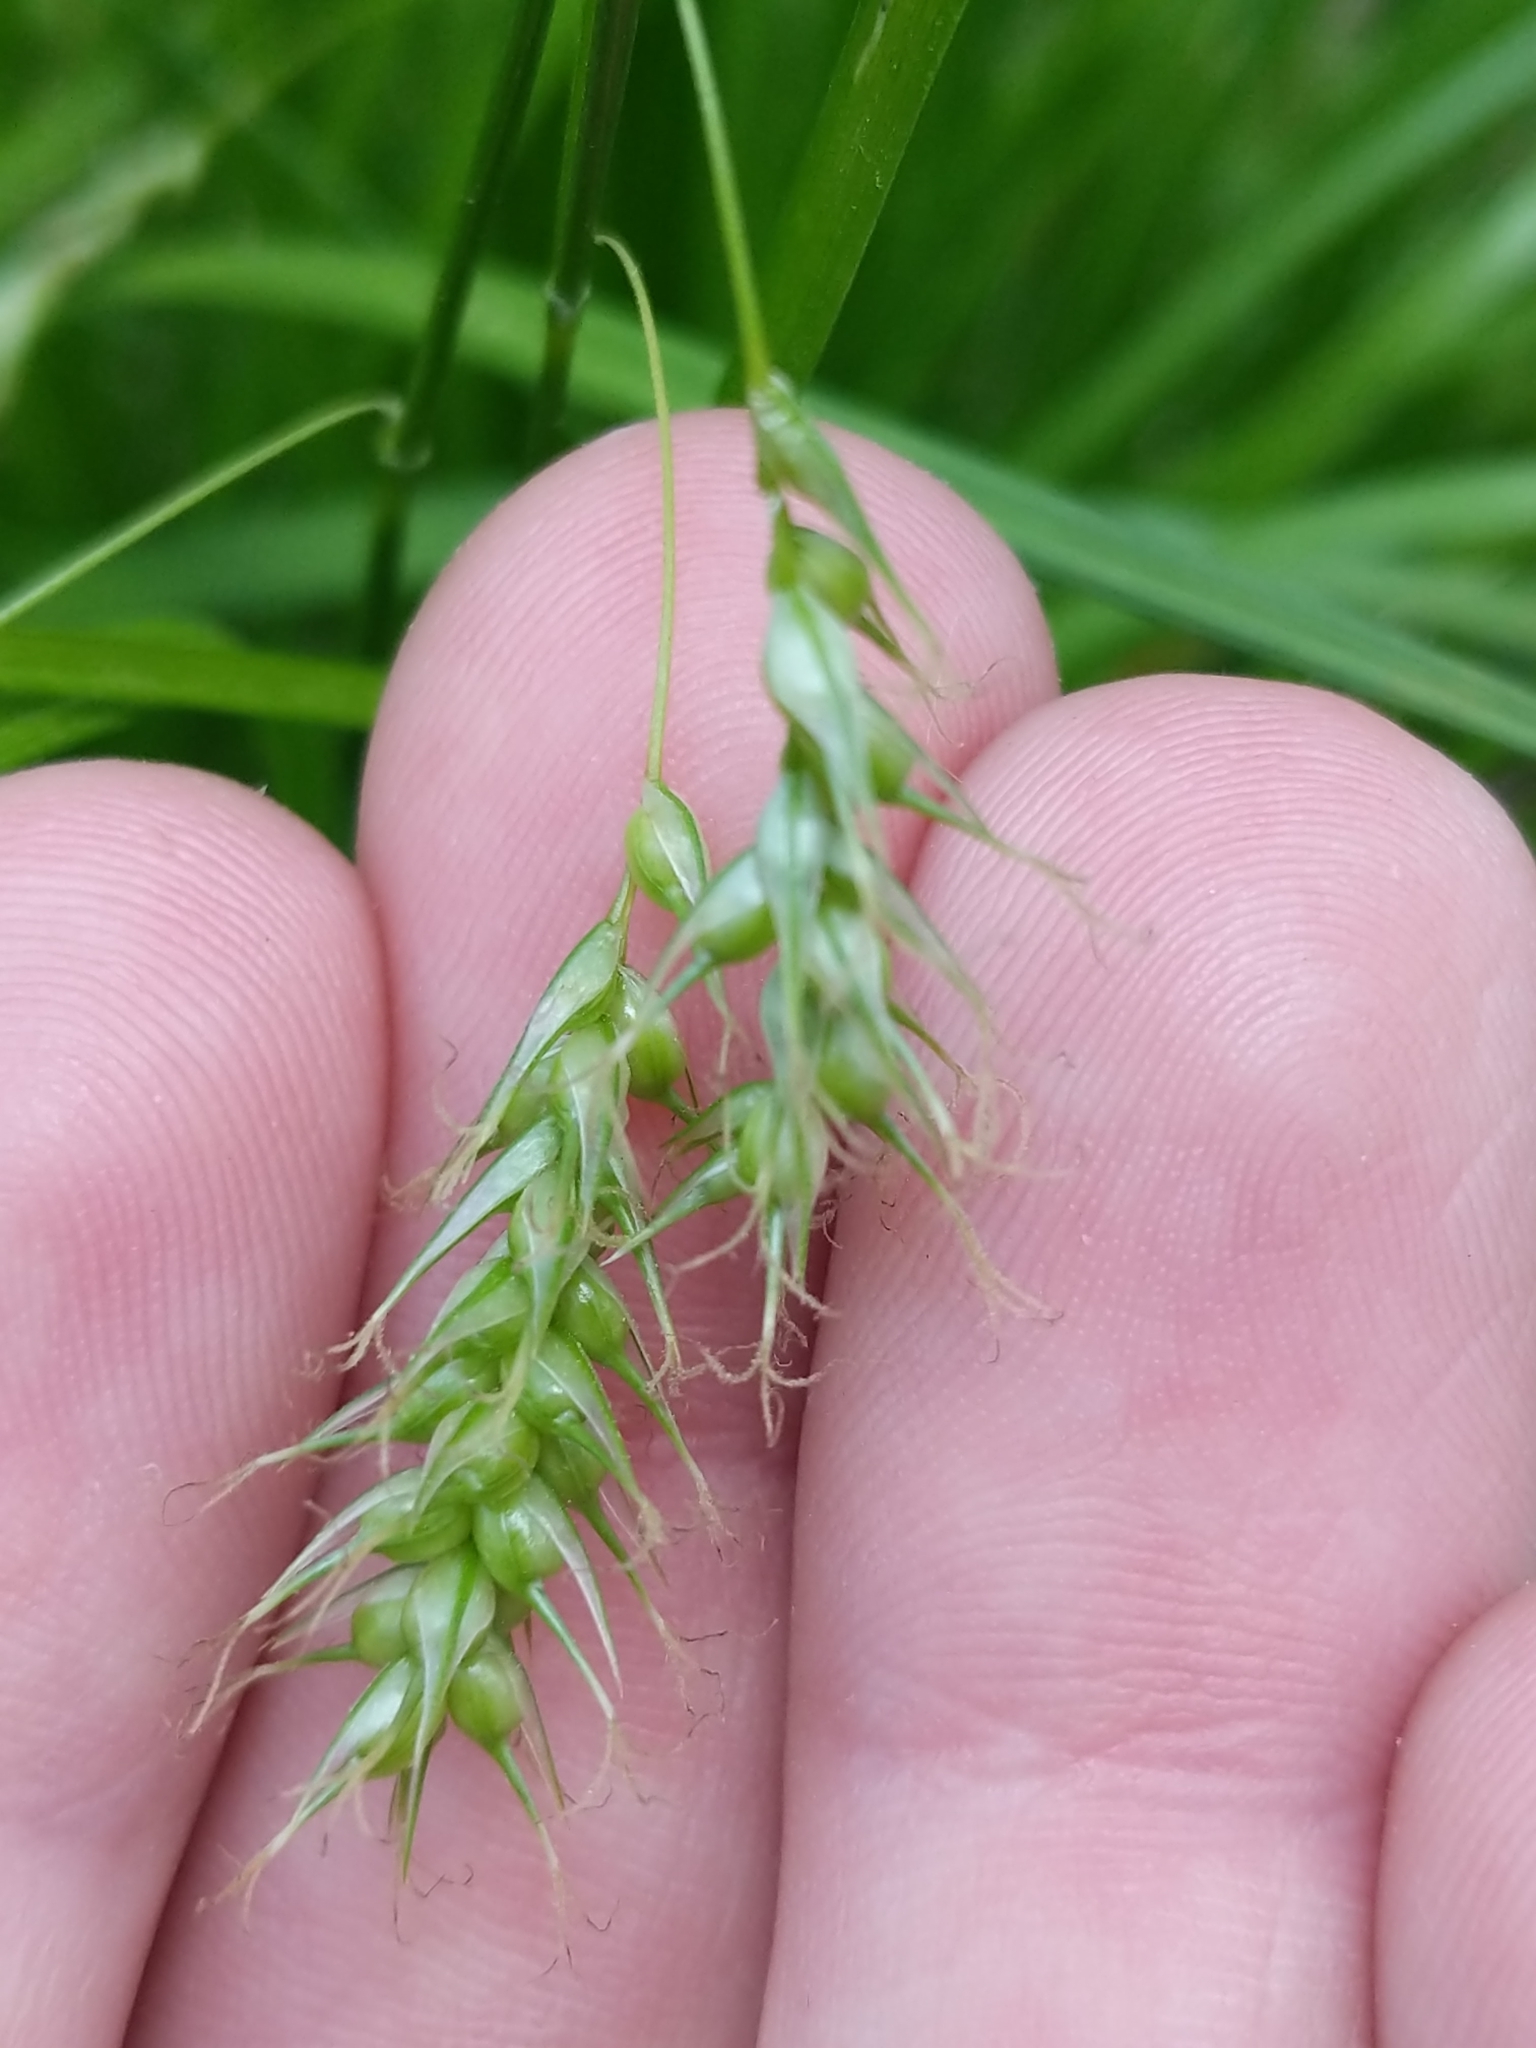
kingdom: Plantae
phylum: Tracheophyta
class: Liliopsida
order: Poales
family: Cyperaceae
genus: Carex
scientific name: Carex sprengelii
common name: Long-beaked sedge
